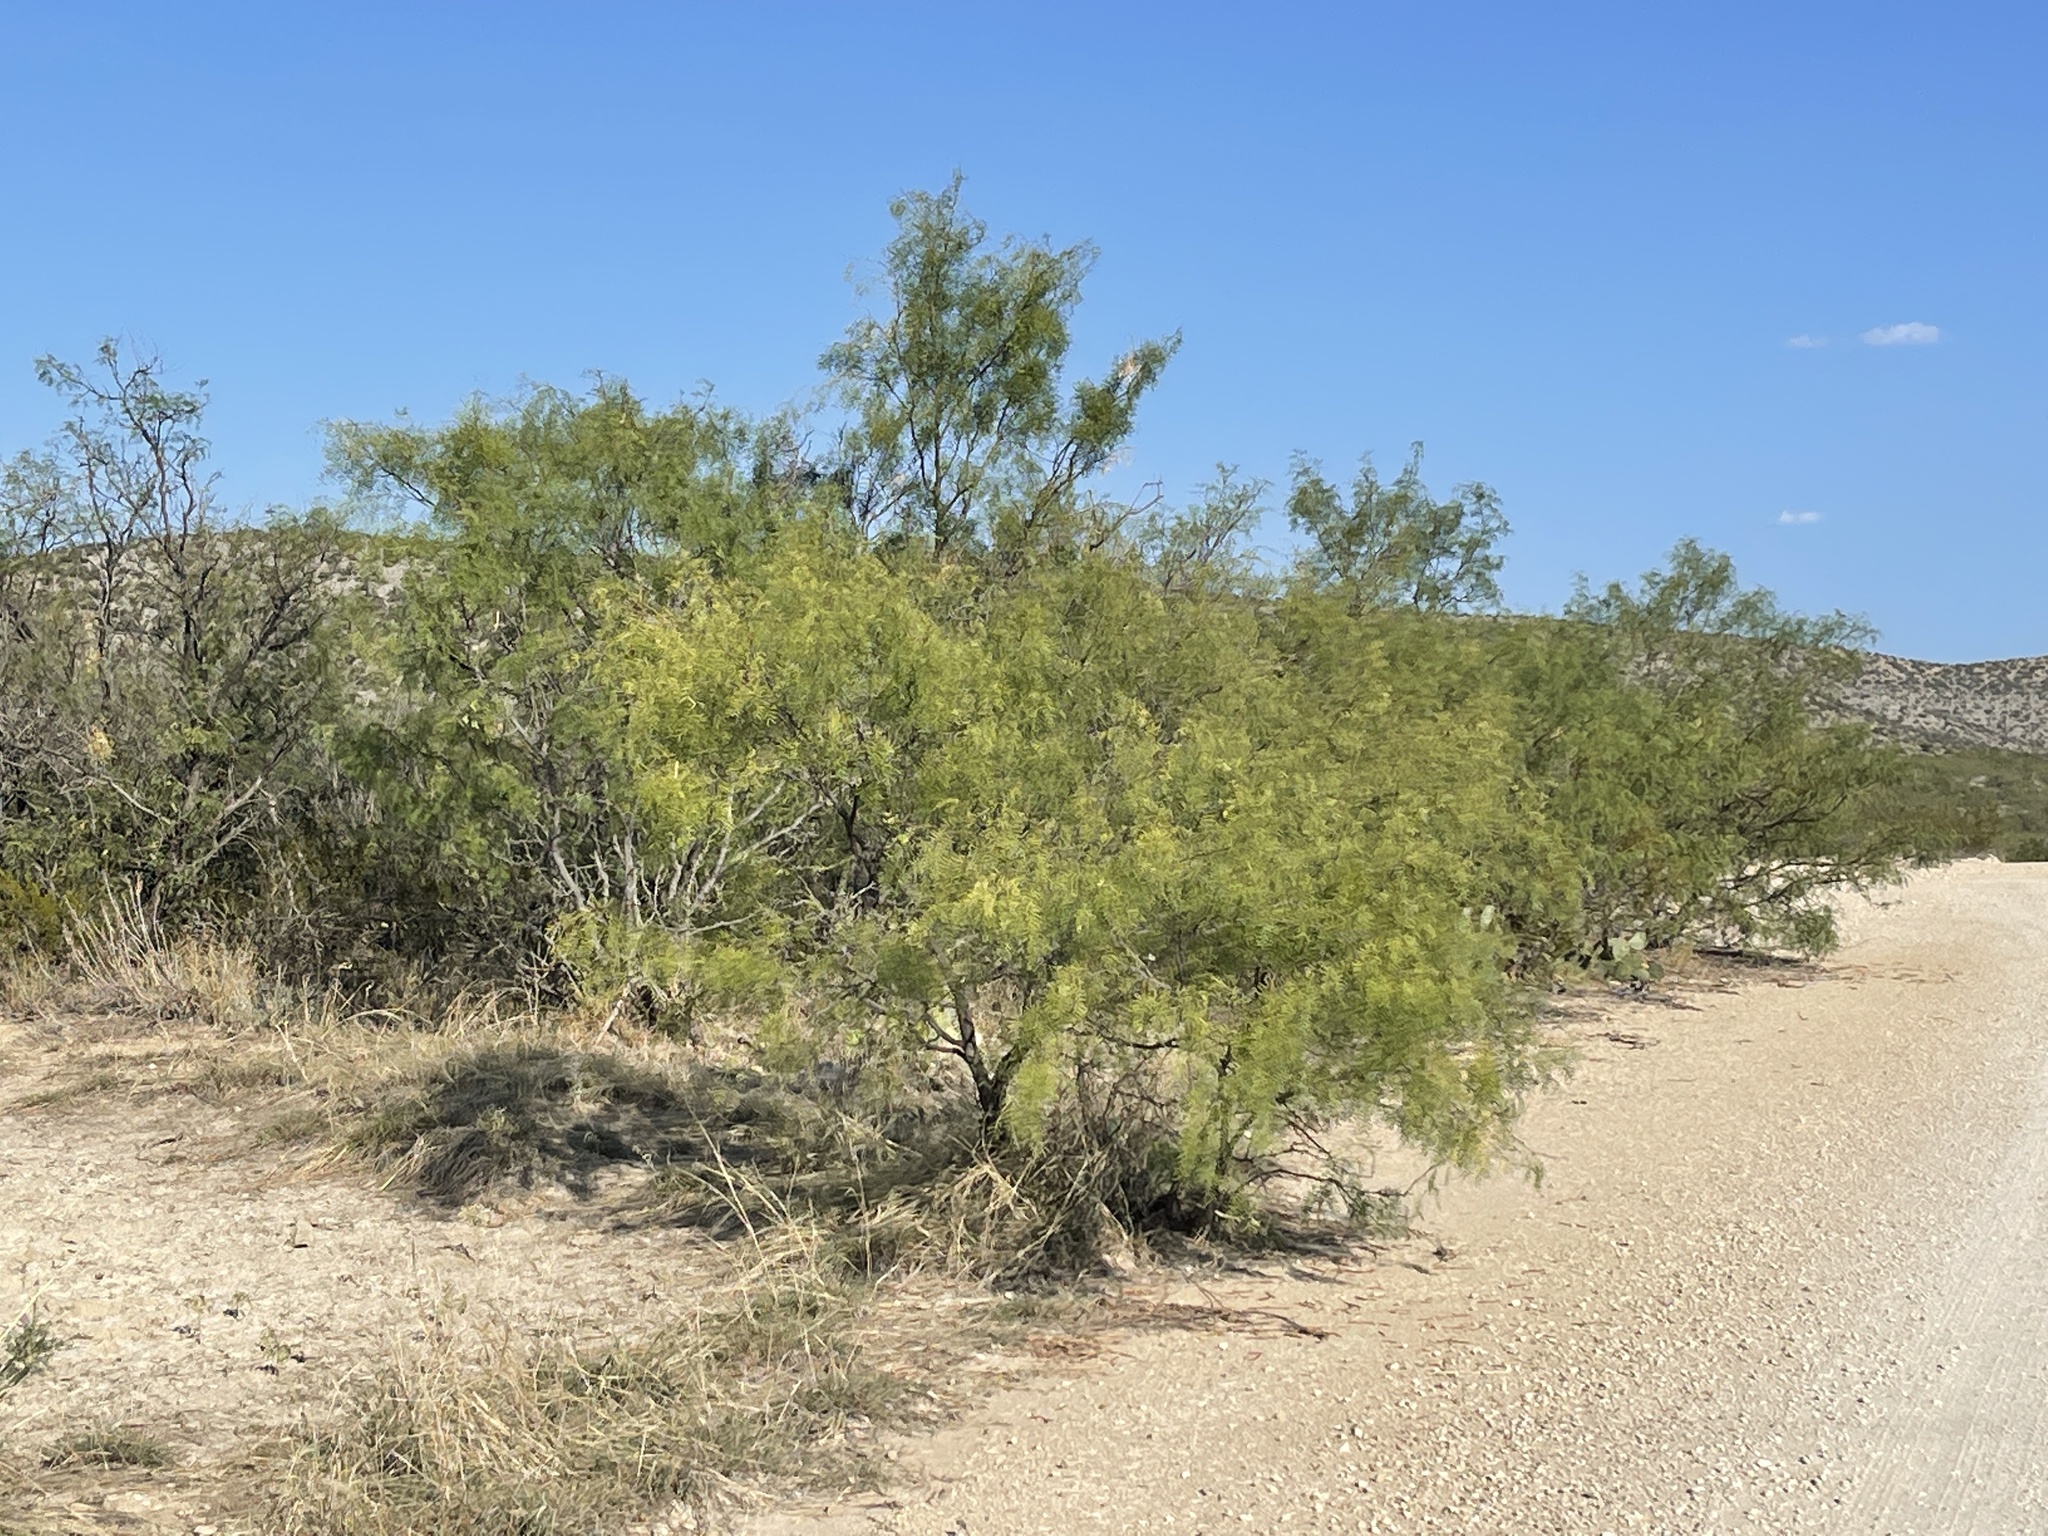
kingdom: Plantae
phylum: Tracheophyta
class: Magnoliopsida
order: Fabales
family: Fabaceae
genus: Prosopis
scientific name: Prosopis glandulosa
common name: Honey mesquite
